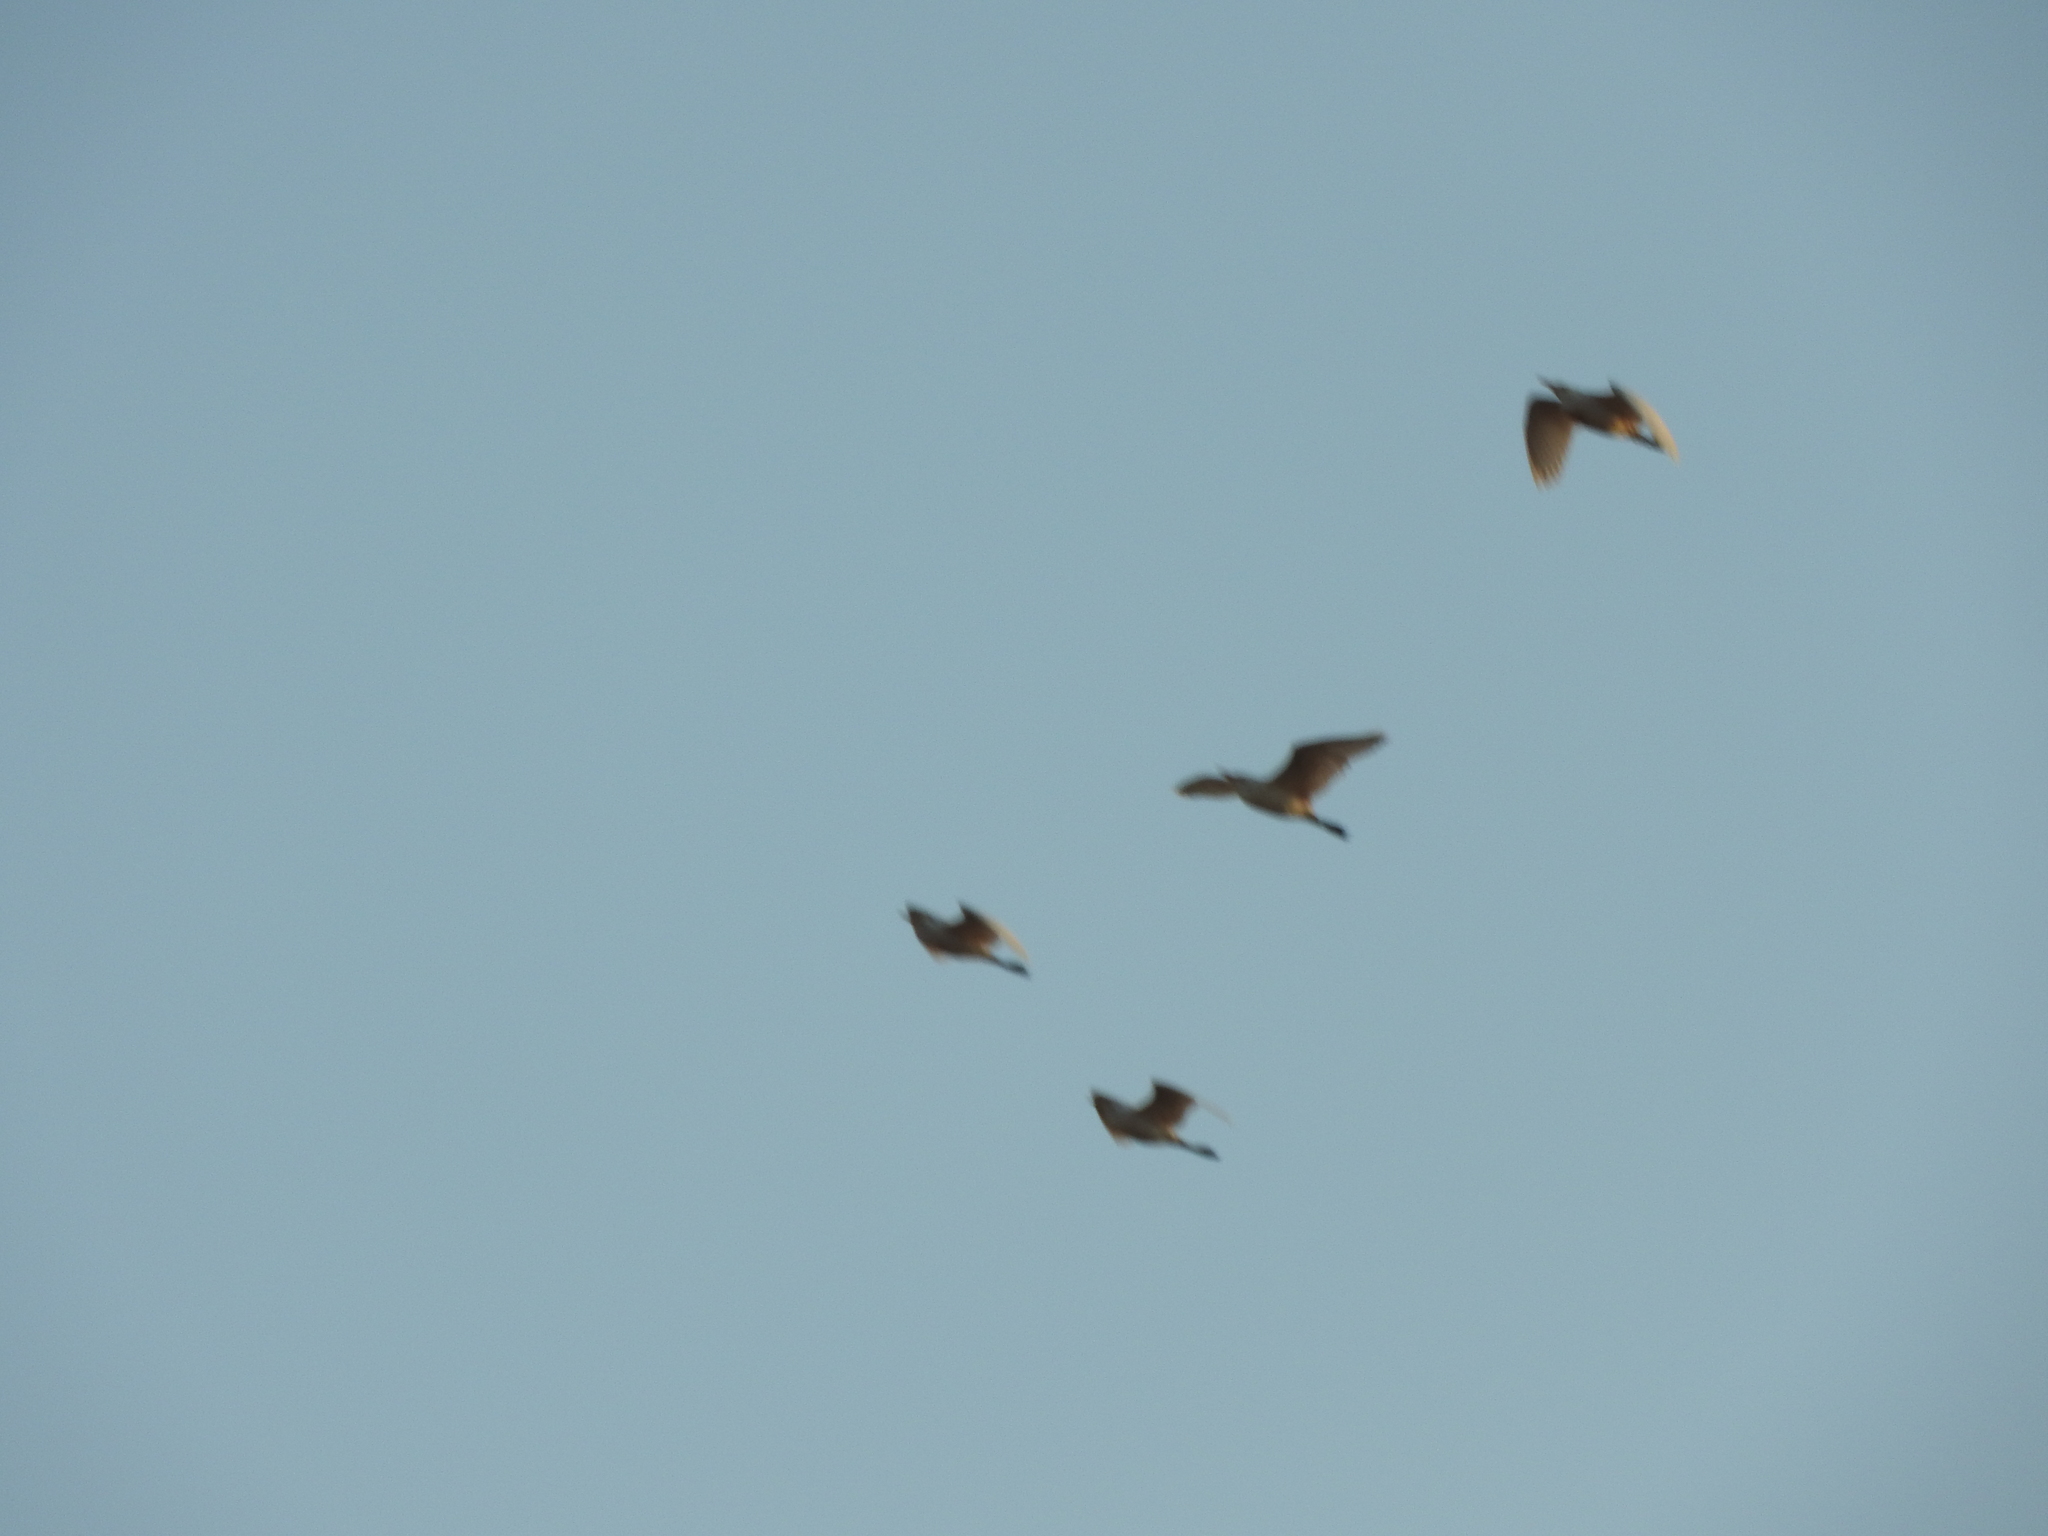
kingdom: Animalia
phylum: Chordata
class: Aves
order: Pelecaniformes
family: Ardeidae
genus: Bubulcus
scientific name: Bubulcus ibis
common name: Cattle egret
